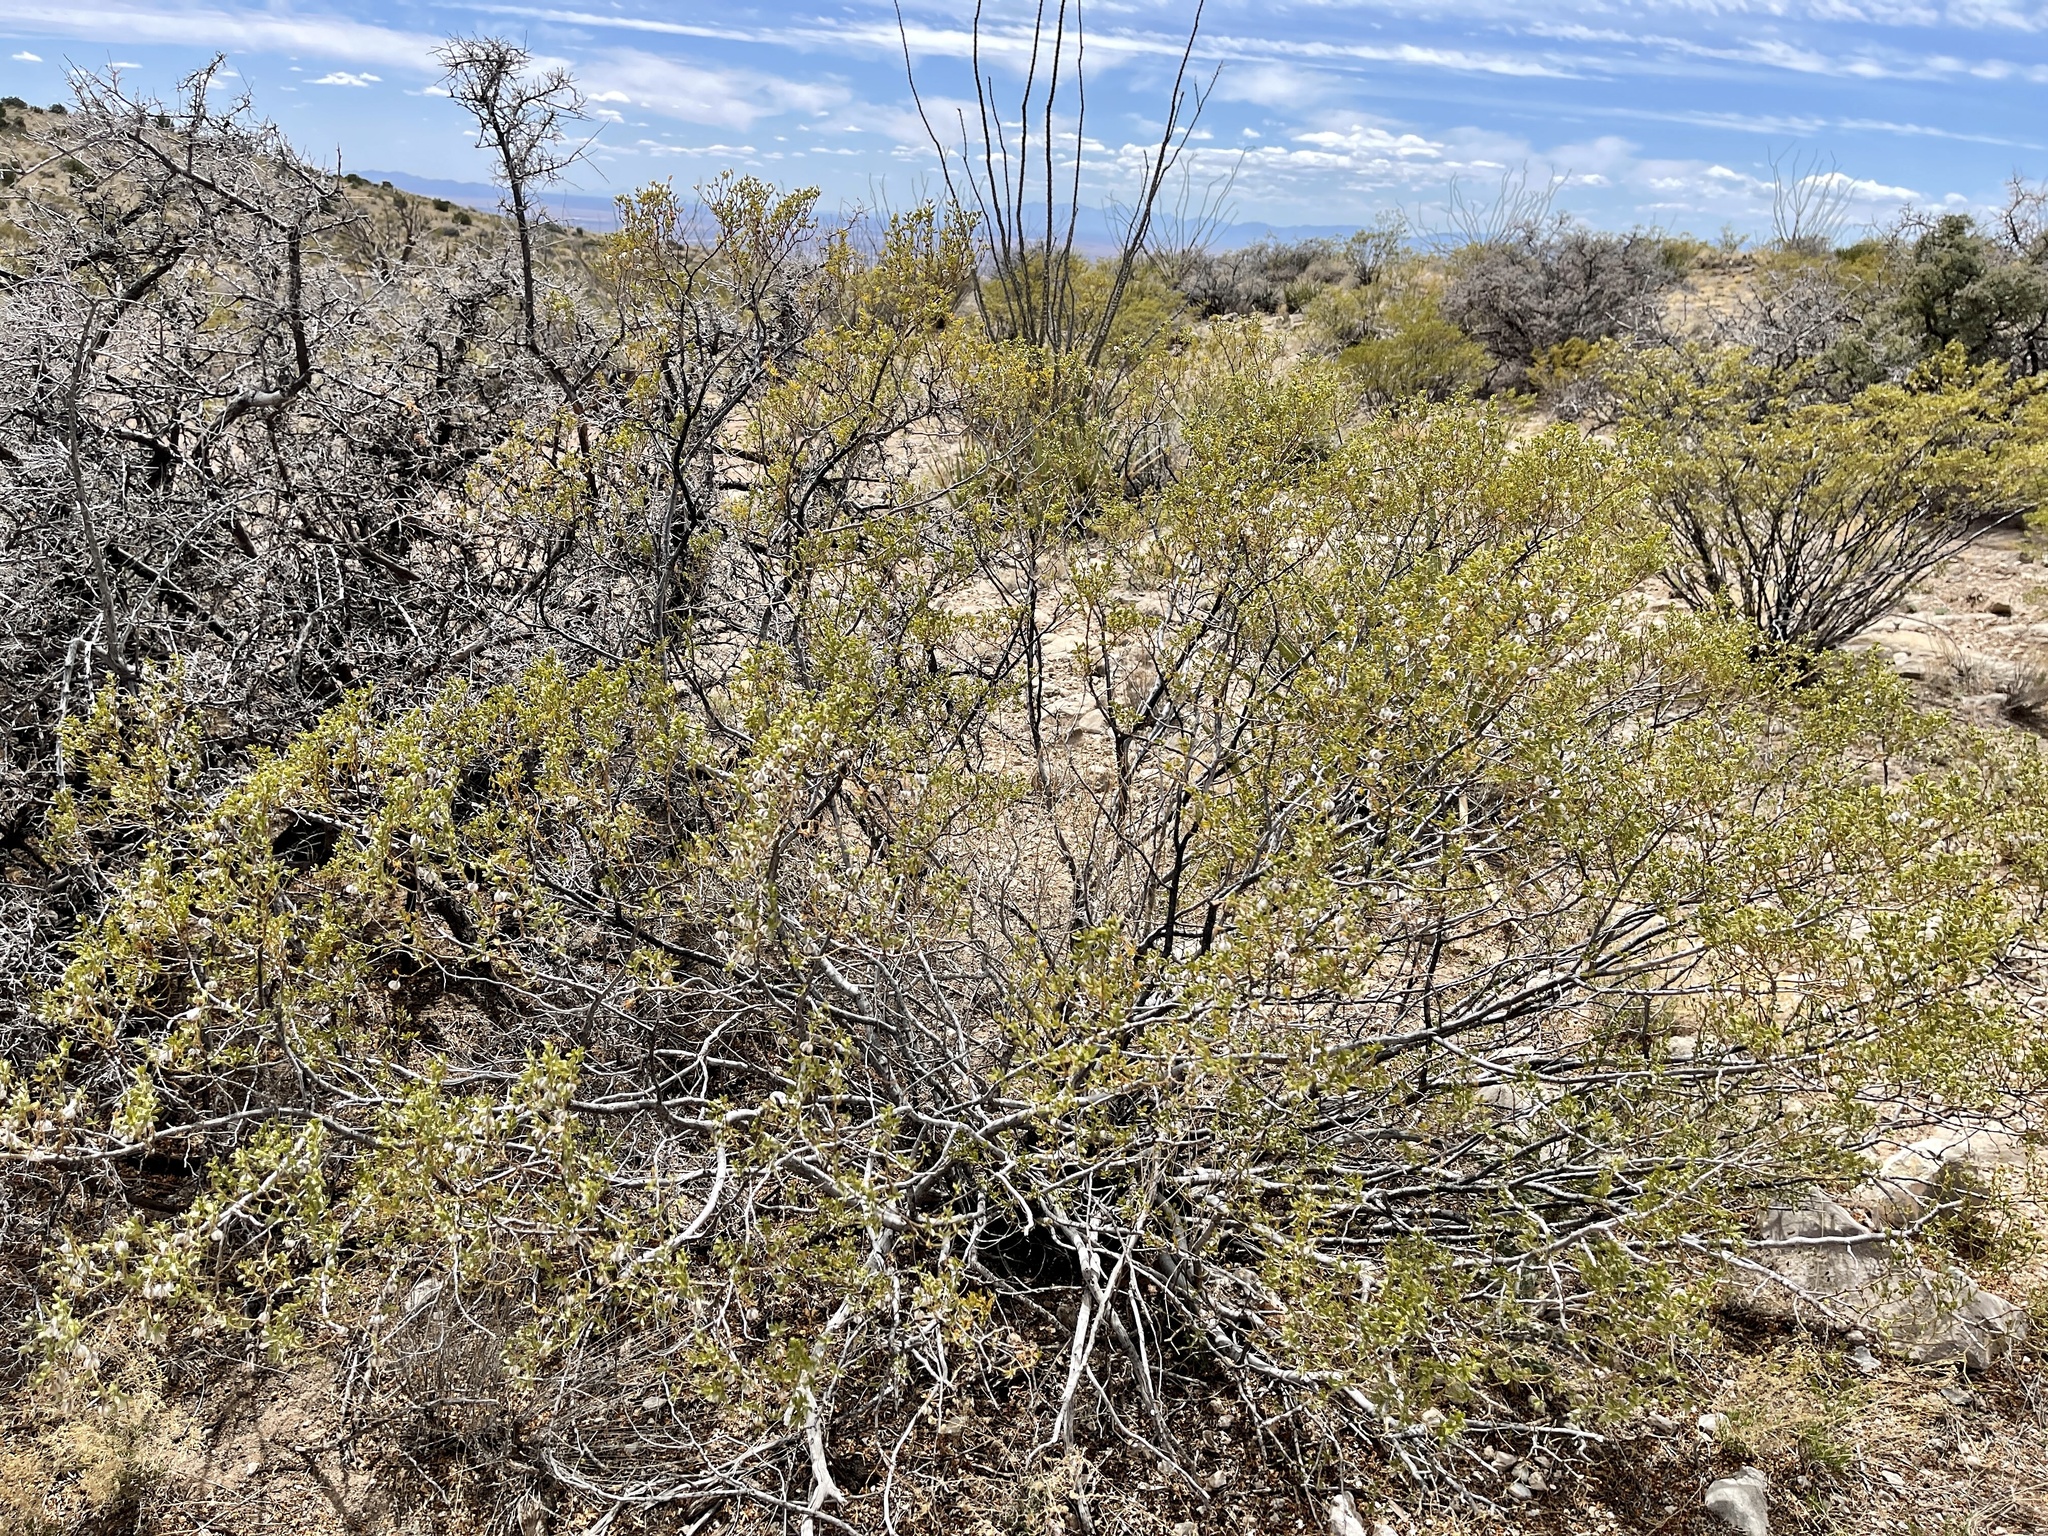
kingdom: Plantae
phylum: Tracheophyta
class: Magnoliopsida
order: Zygophyllales
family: Zygophyllaceae
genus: Larrea
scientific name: Larrea tridentata
